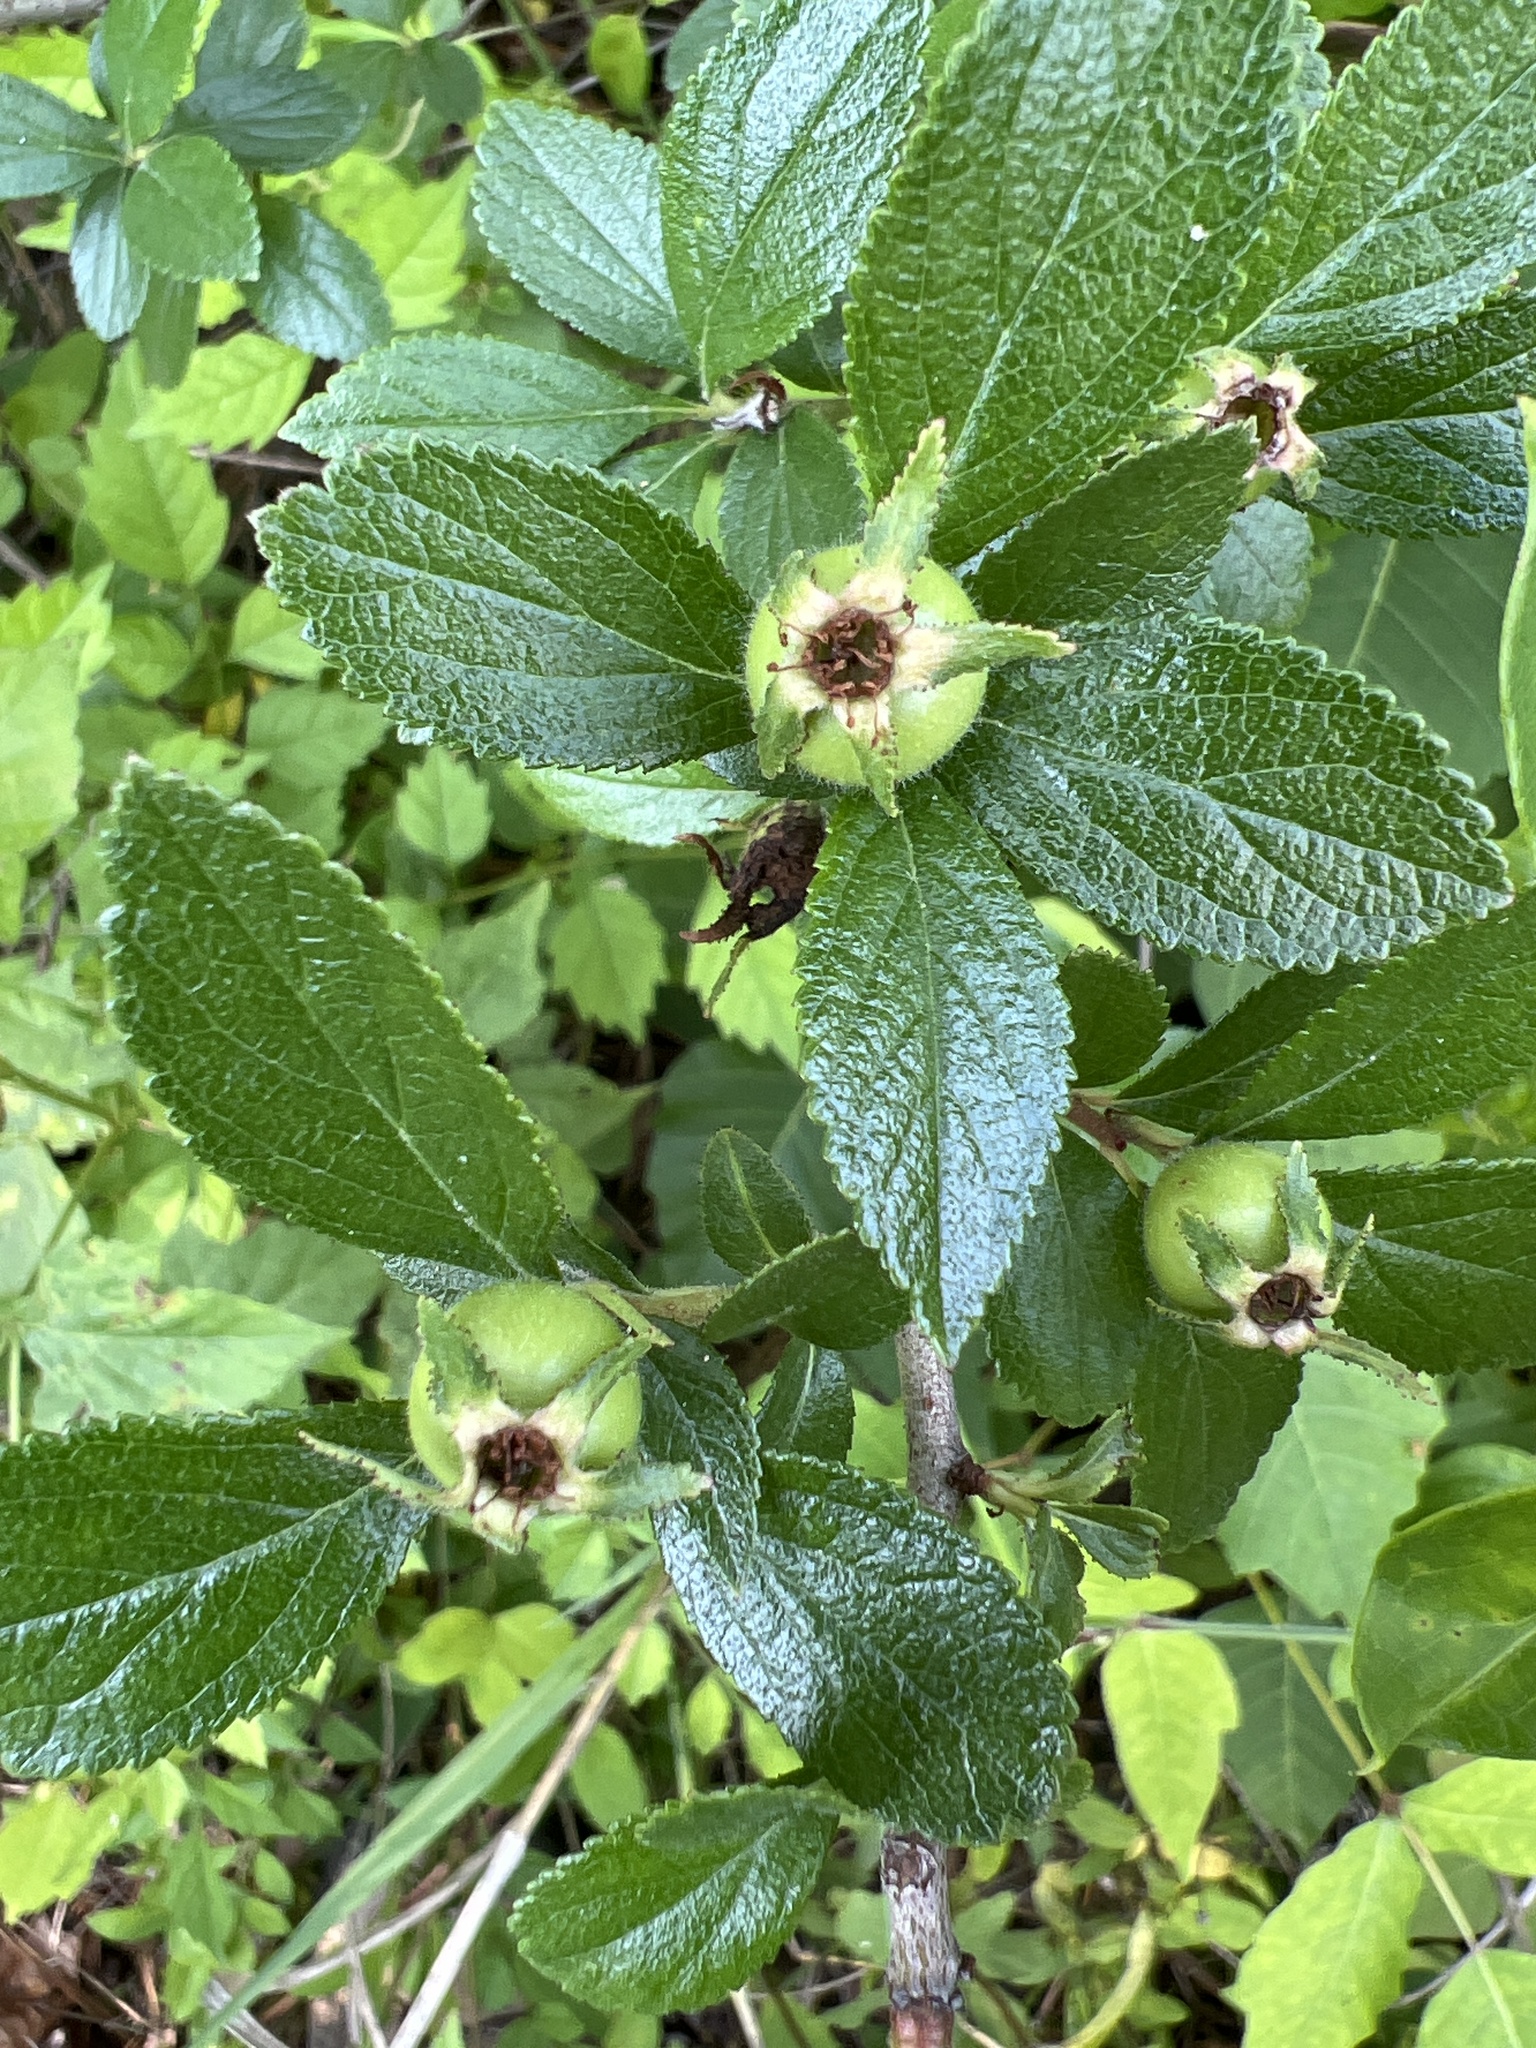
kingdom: Plantae
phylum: Tracheophyta
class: Magnoliopsida
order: Rosales
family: Rosaceae
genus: Crataegus
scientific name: Crataegus uniflora
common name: One-flower hawthorn
